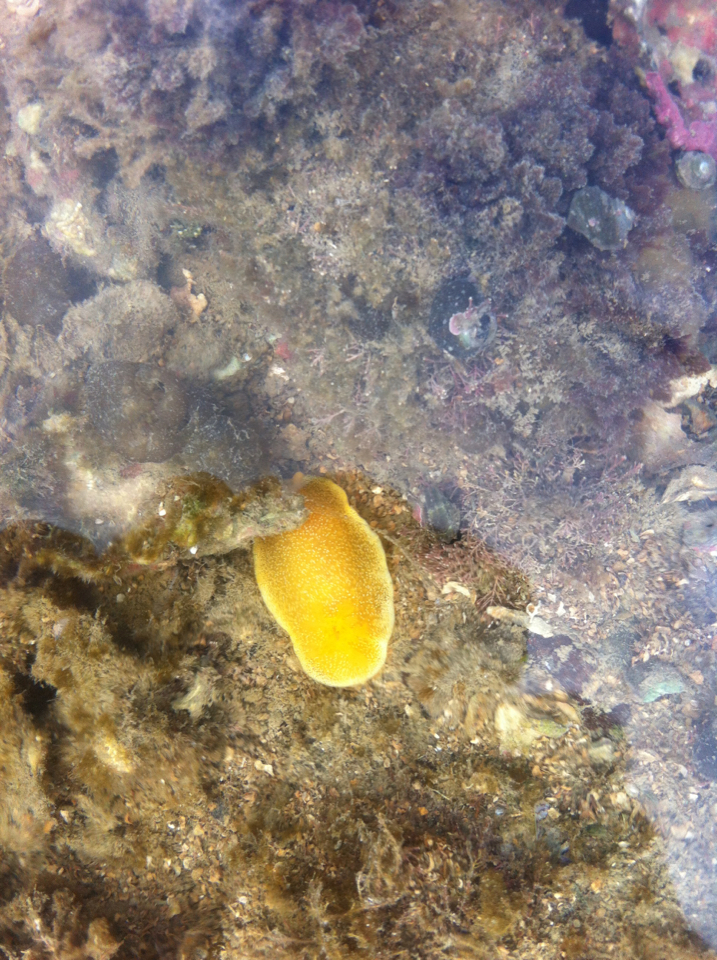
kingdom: Animalia
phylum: Mollusca
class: Gastropoda
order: Nudibranchia
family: Dendrodorididae
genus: Dendrodoris
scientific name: Dendrodoris citrina
